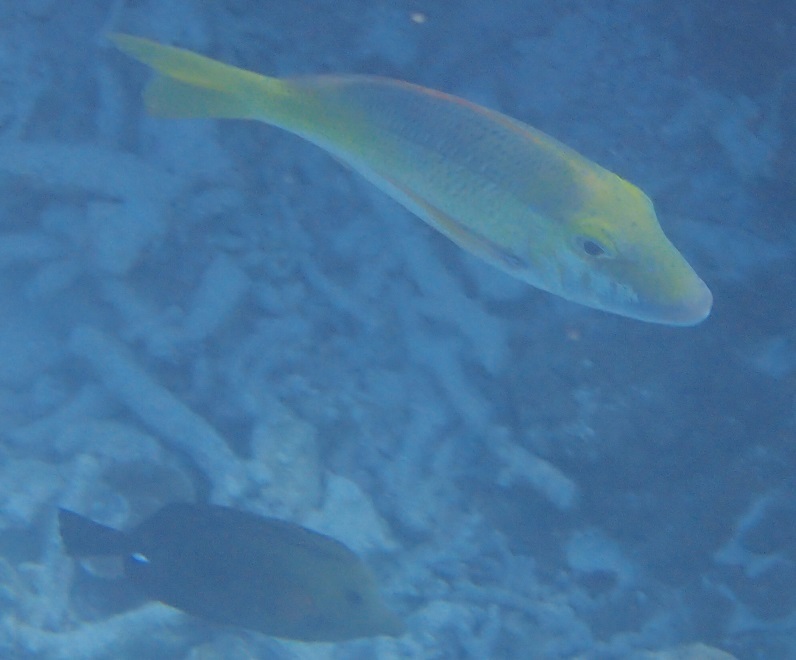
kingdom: Animalia
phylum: Chordata
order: Perciformes
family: Lethrinidae
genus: Lethrinus
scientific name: Lethrinus atkinsoni
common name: Pacific yellowtail emperor
